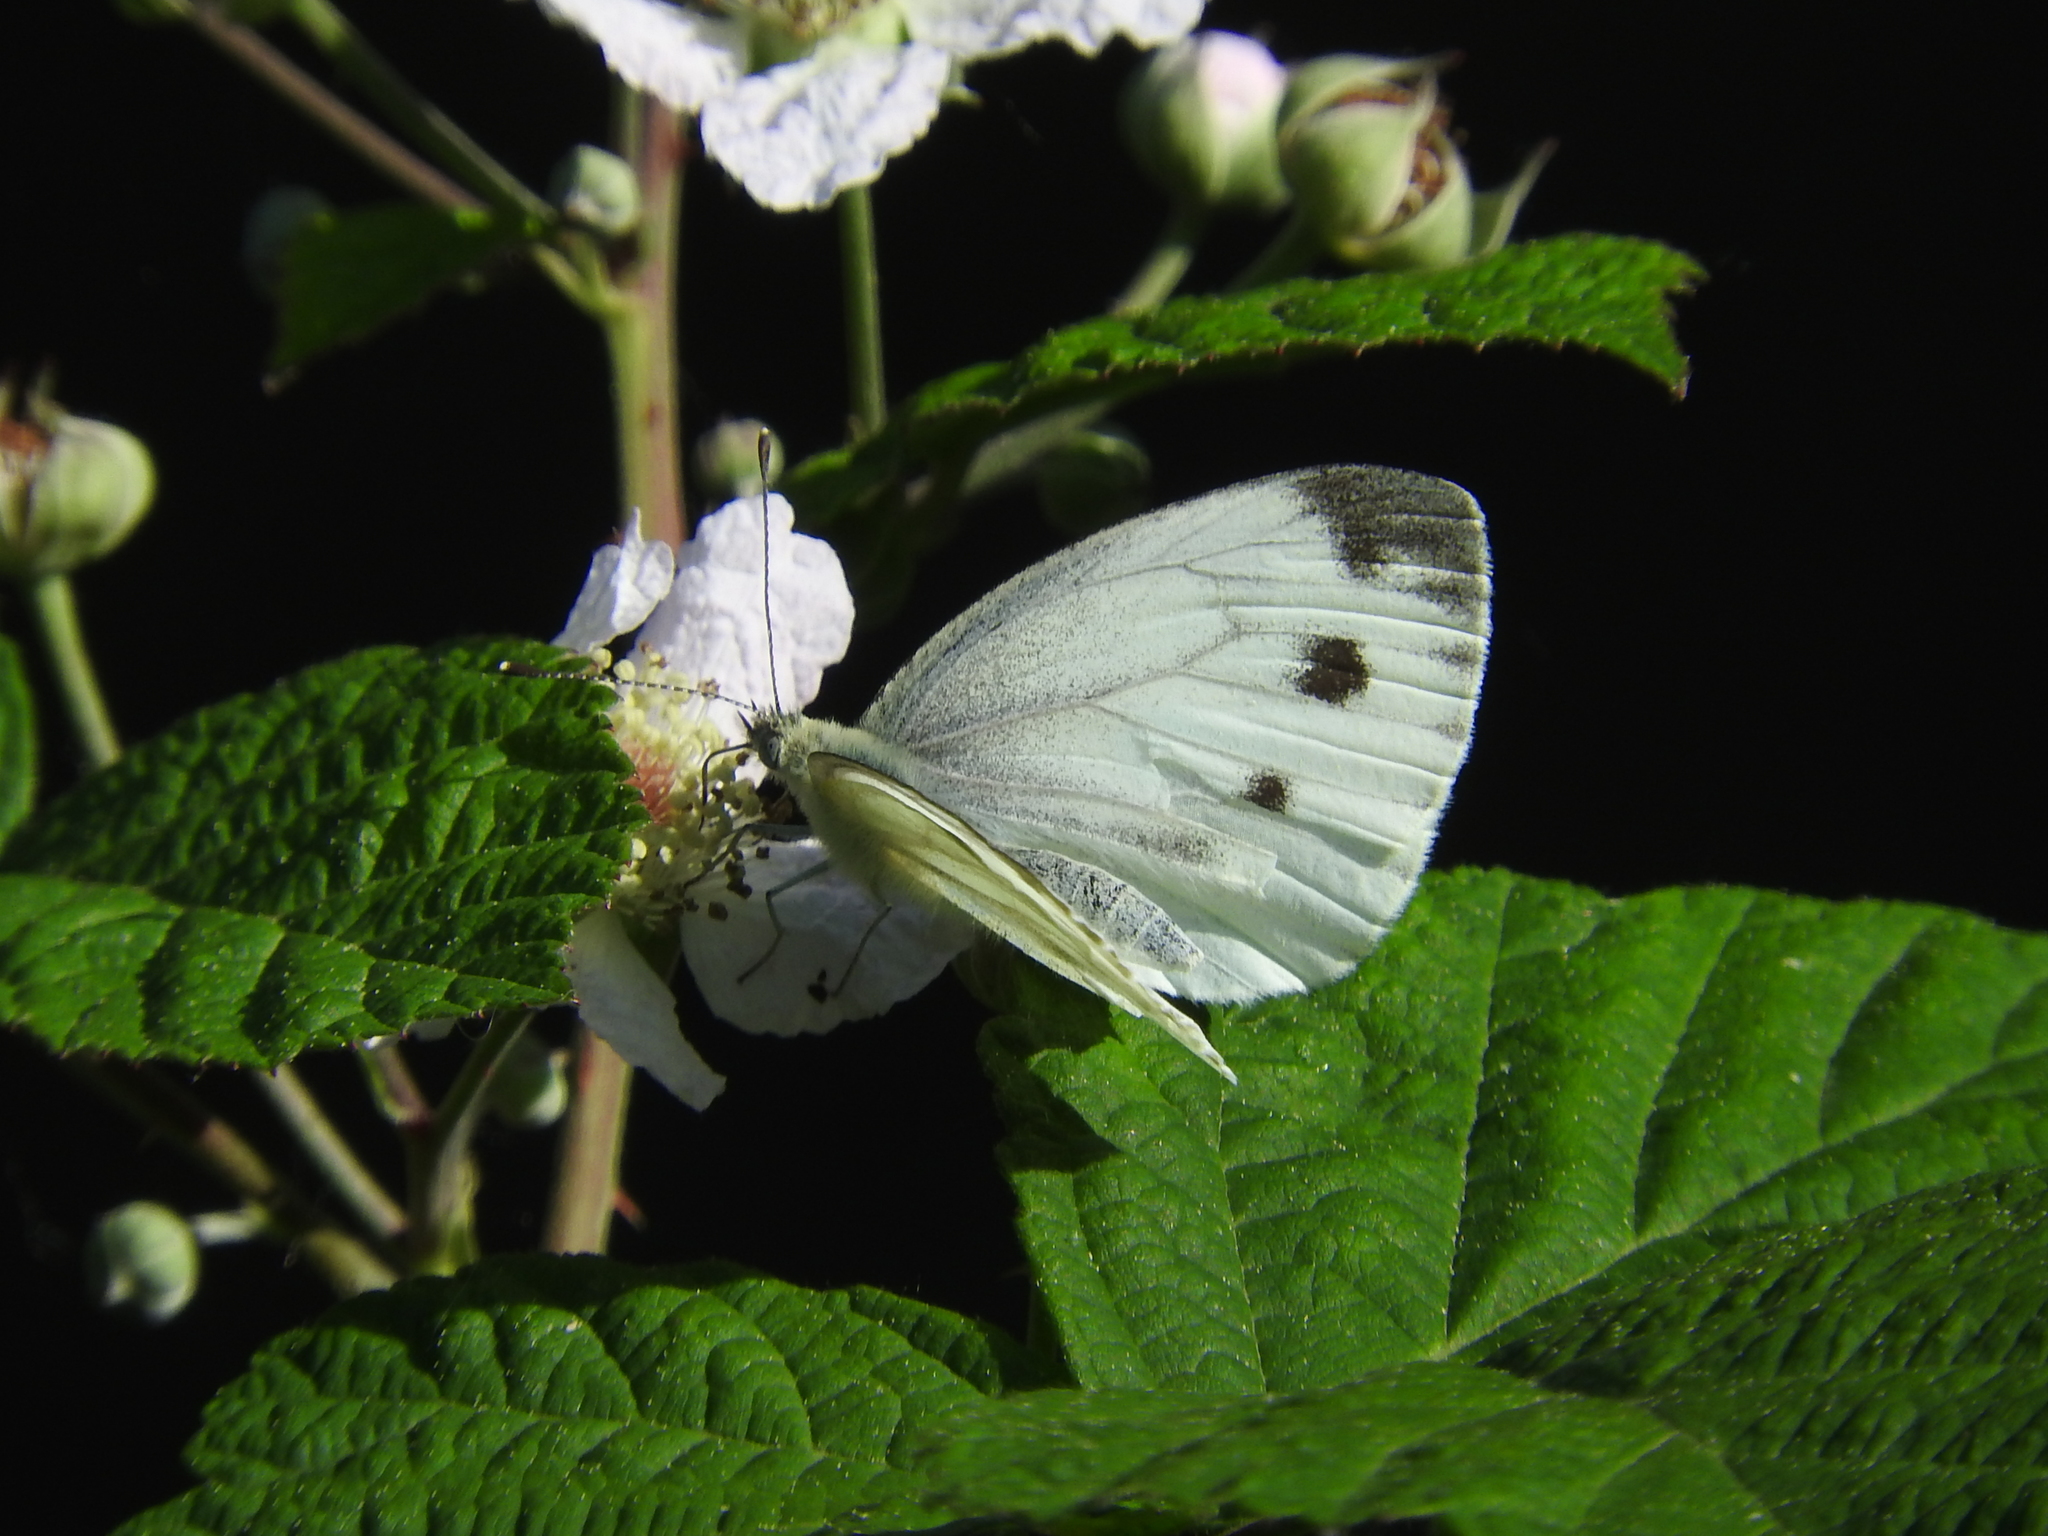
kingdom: Animalia
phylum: Arthropoda
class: Insecta
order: Lepidoptera
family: Pieridae
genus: Pieris
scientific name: Pieris napi
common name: Green-veined white
